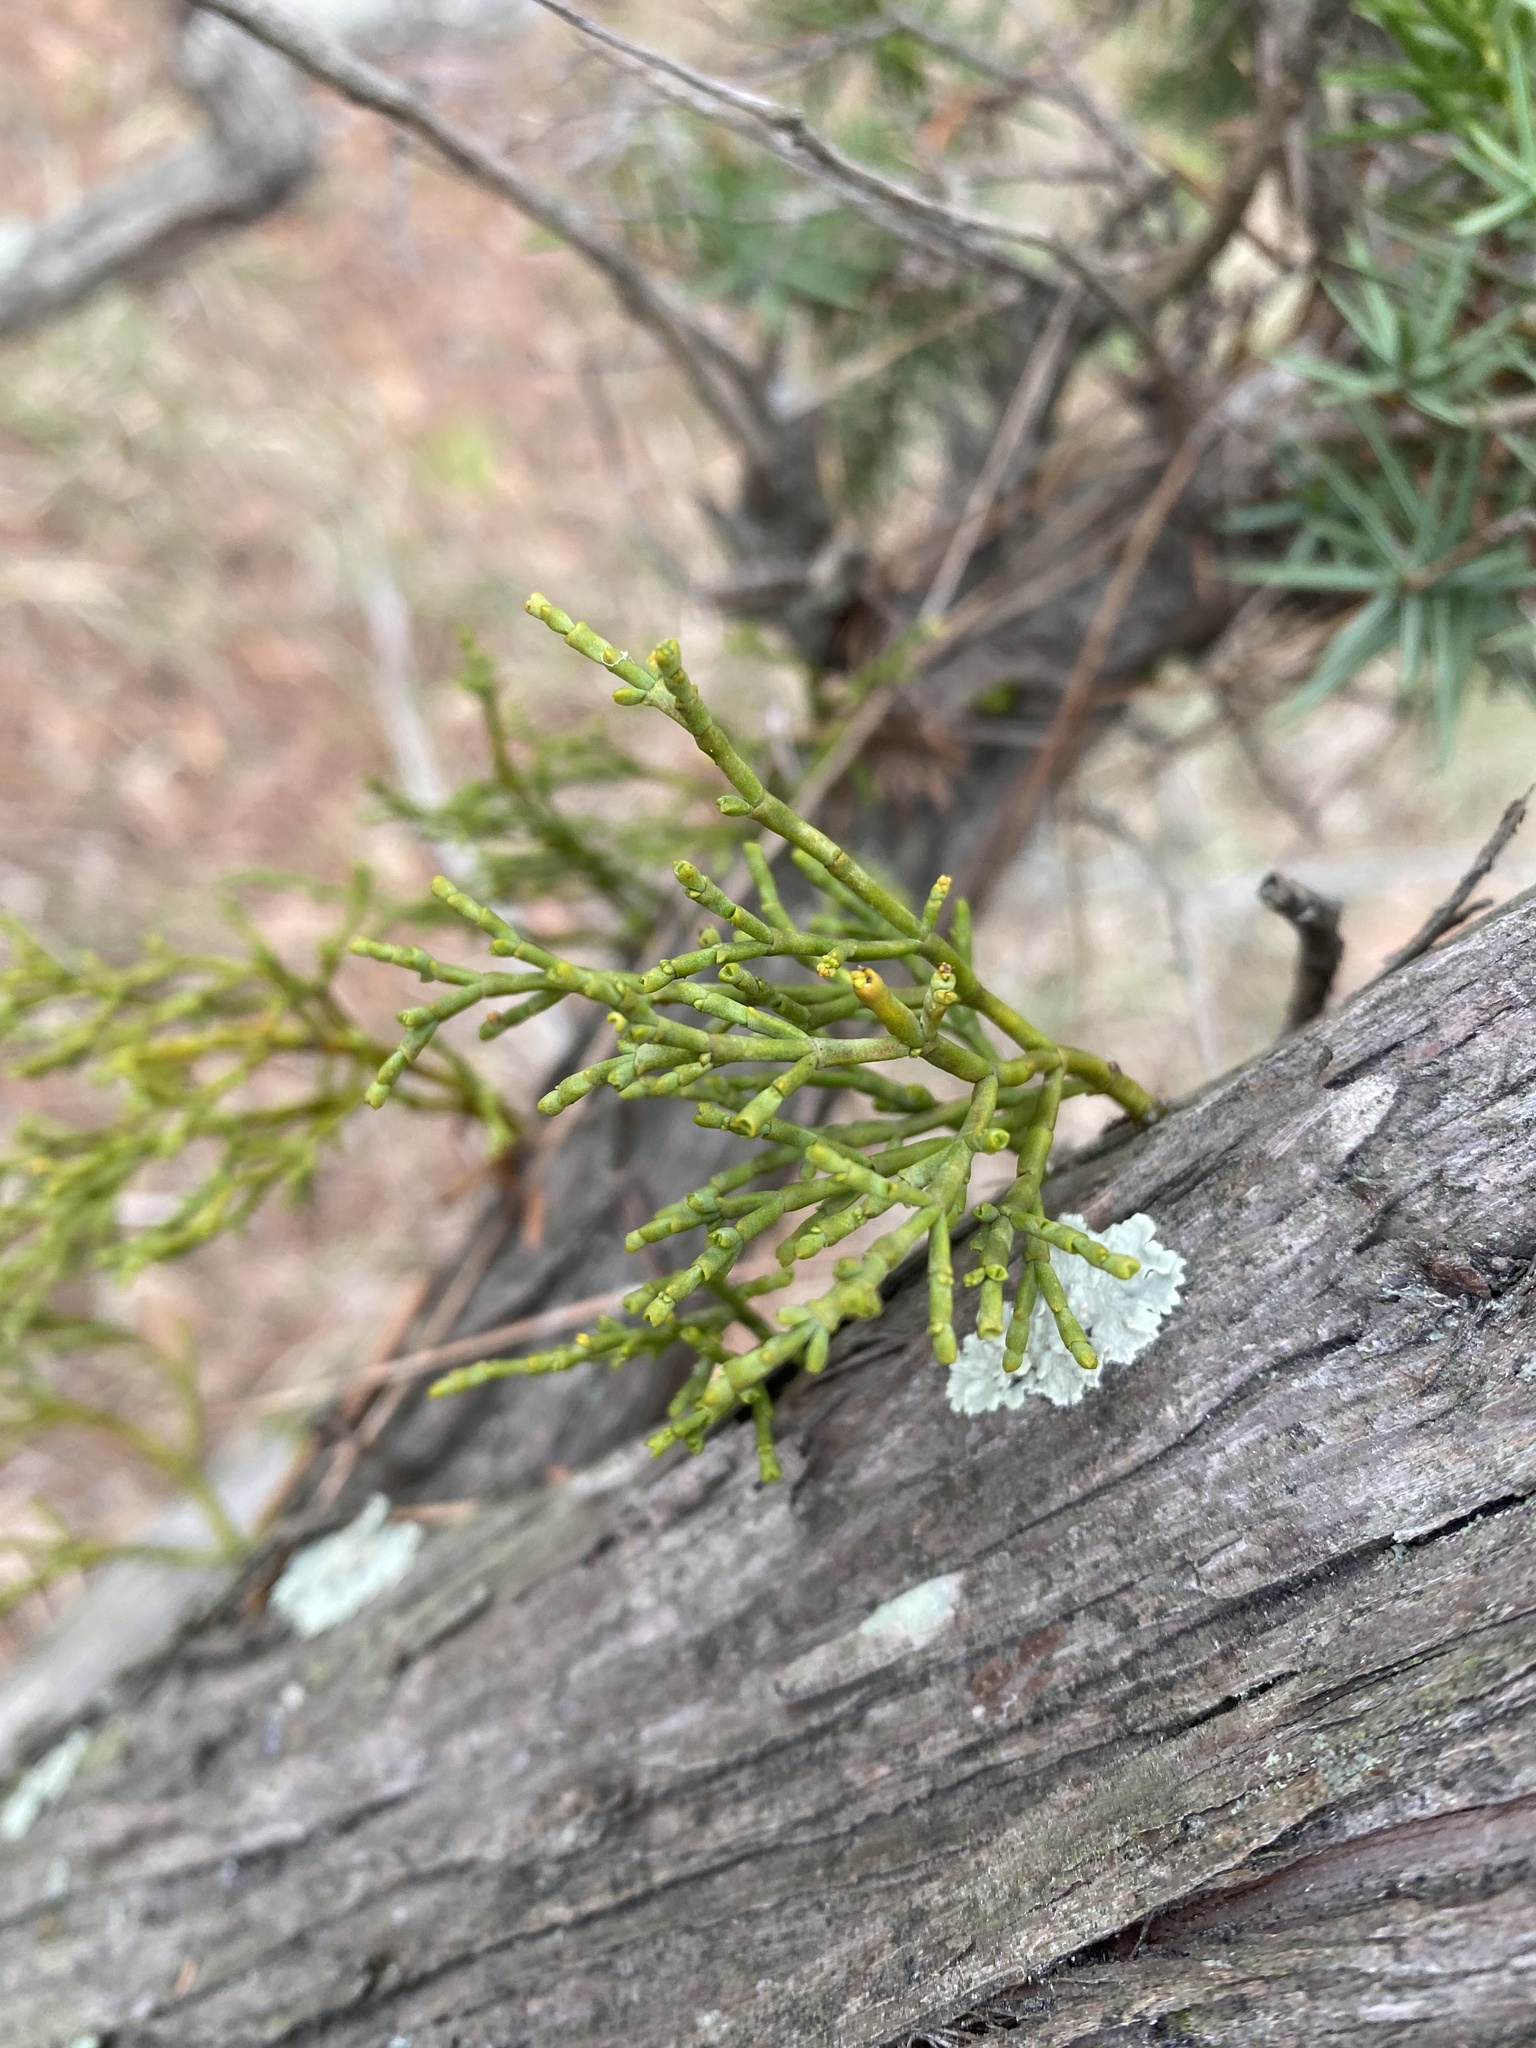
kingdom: Plantae
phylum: Tracheophyta
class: Magnoliopsida
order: Santalales
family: Viscaceae
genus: Arceuthobium
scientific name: Arceuthobium oxycedri
